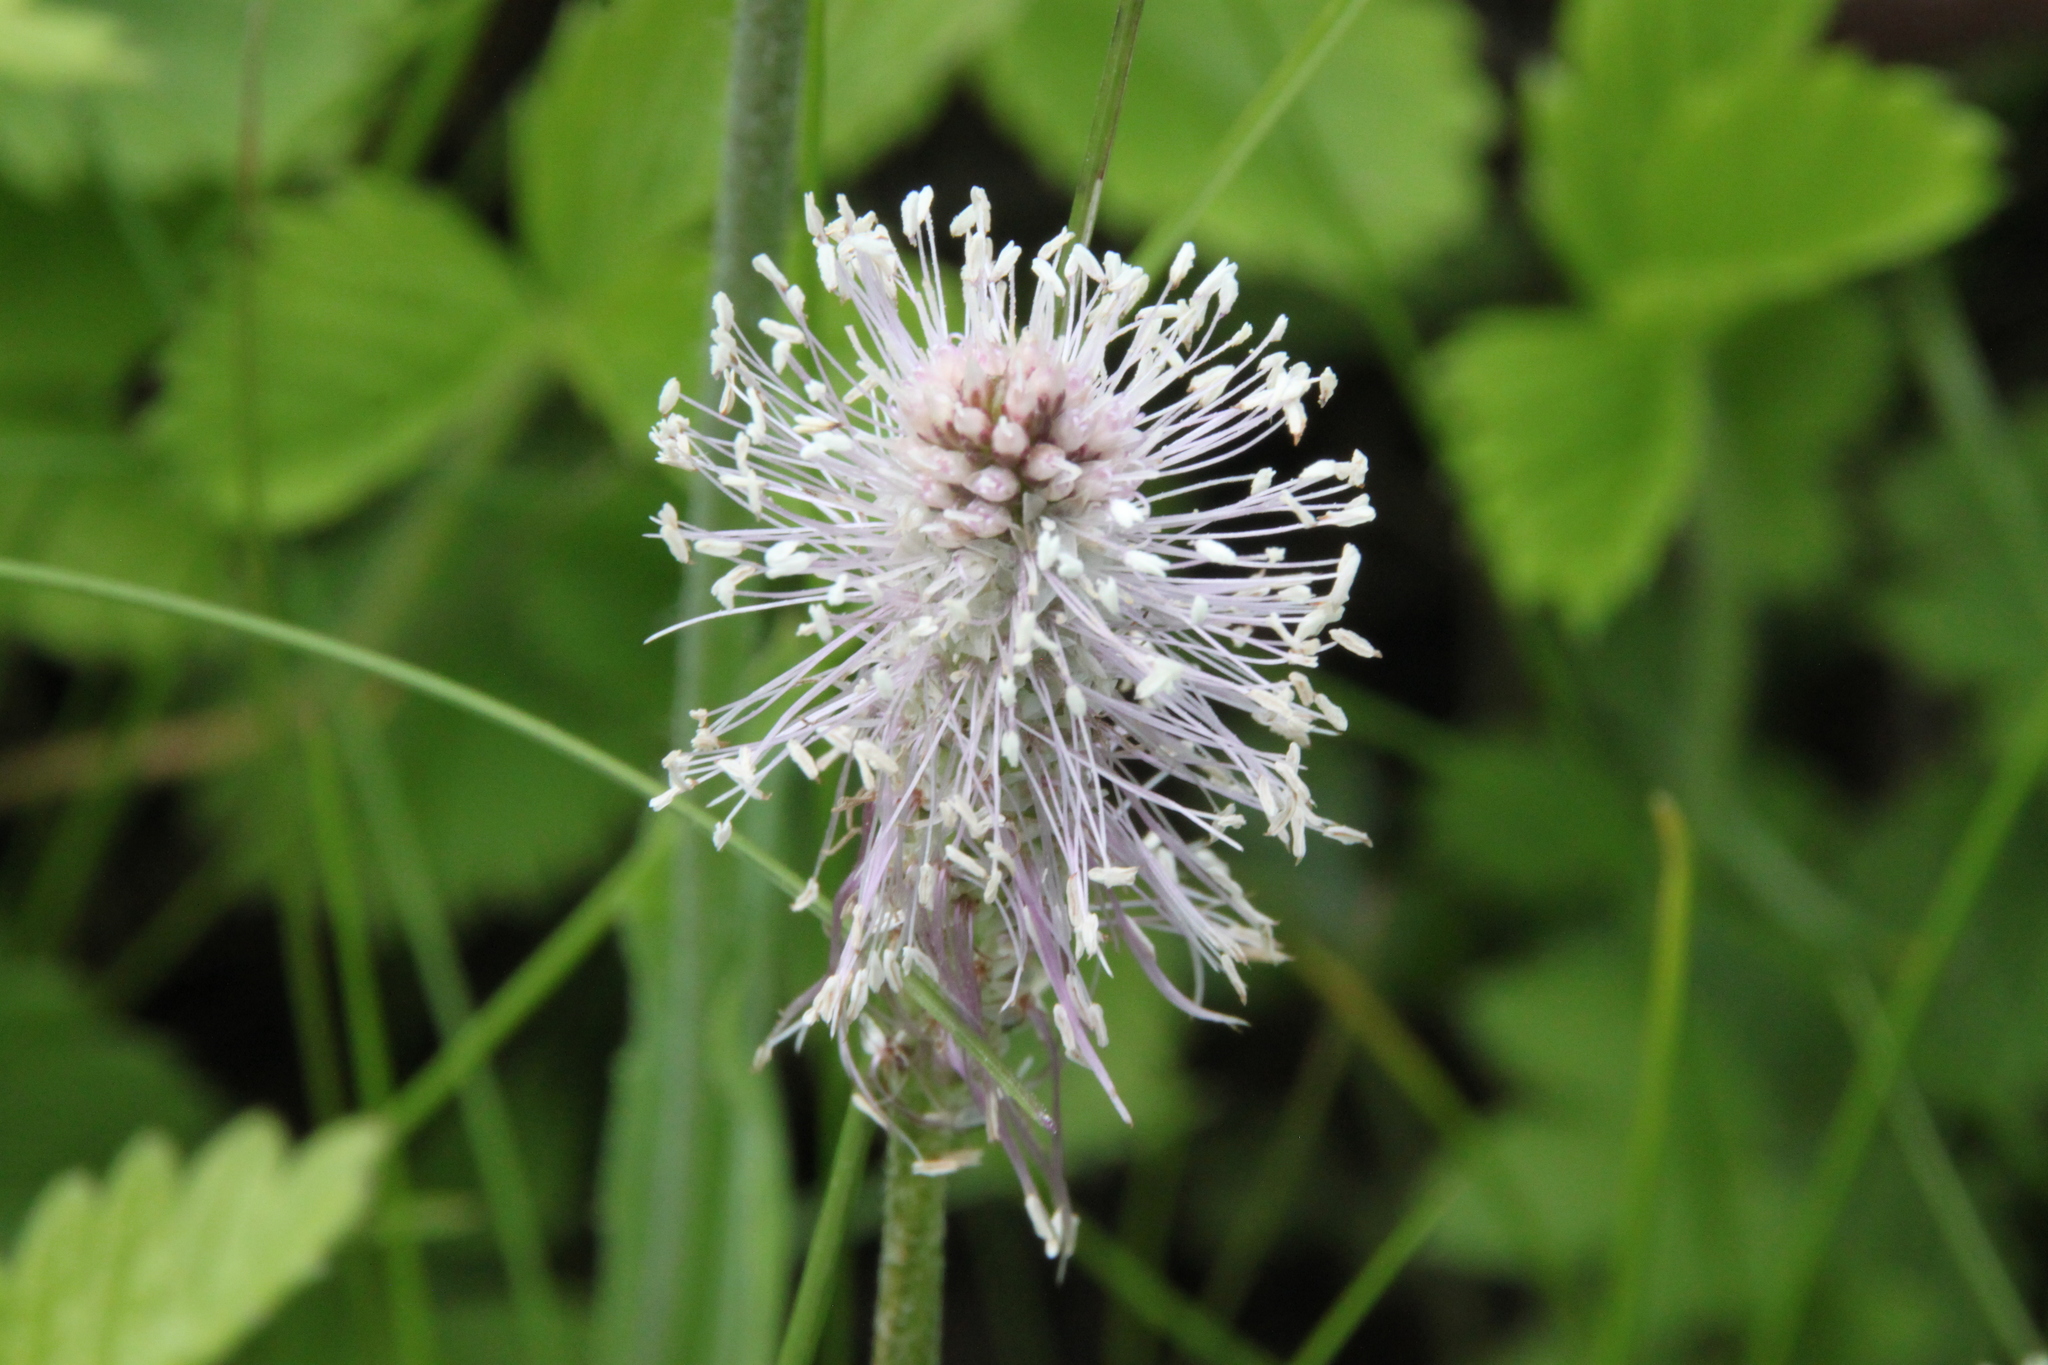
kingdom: Plantae
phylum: Tracheophyta
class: Magnoliopsida
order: Lamiales
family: Plantaginaceae
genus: Plantago
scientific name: Plantago media
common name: Hoary plantain
